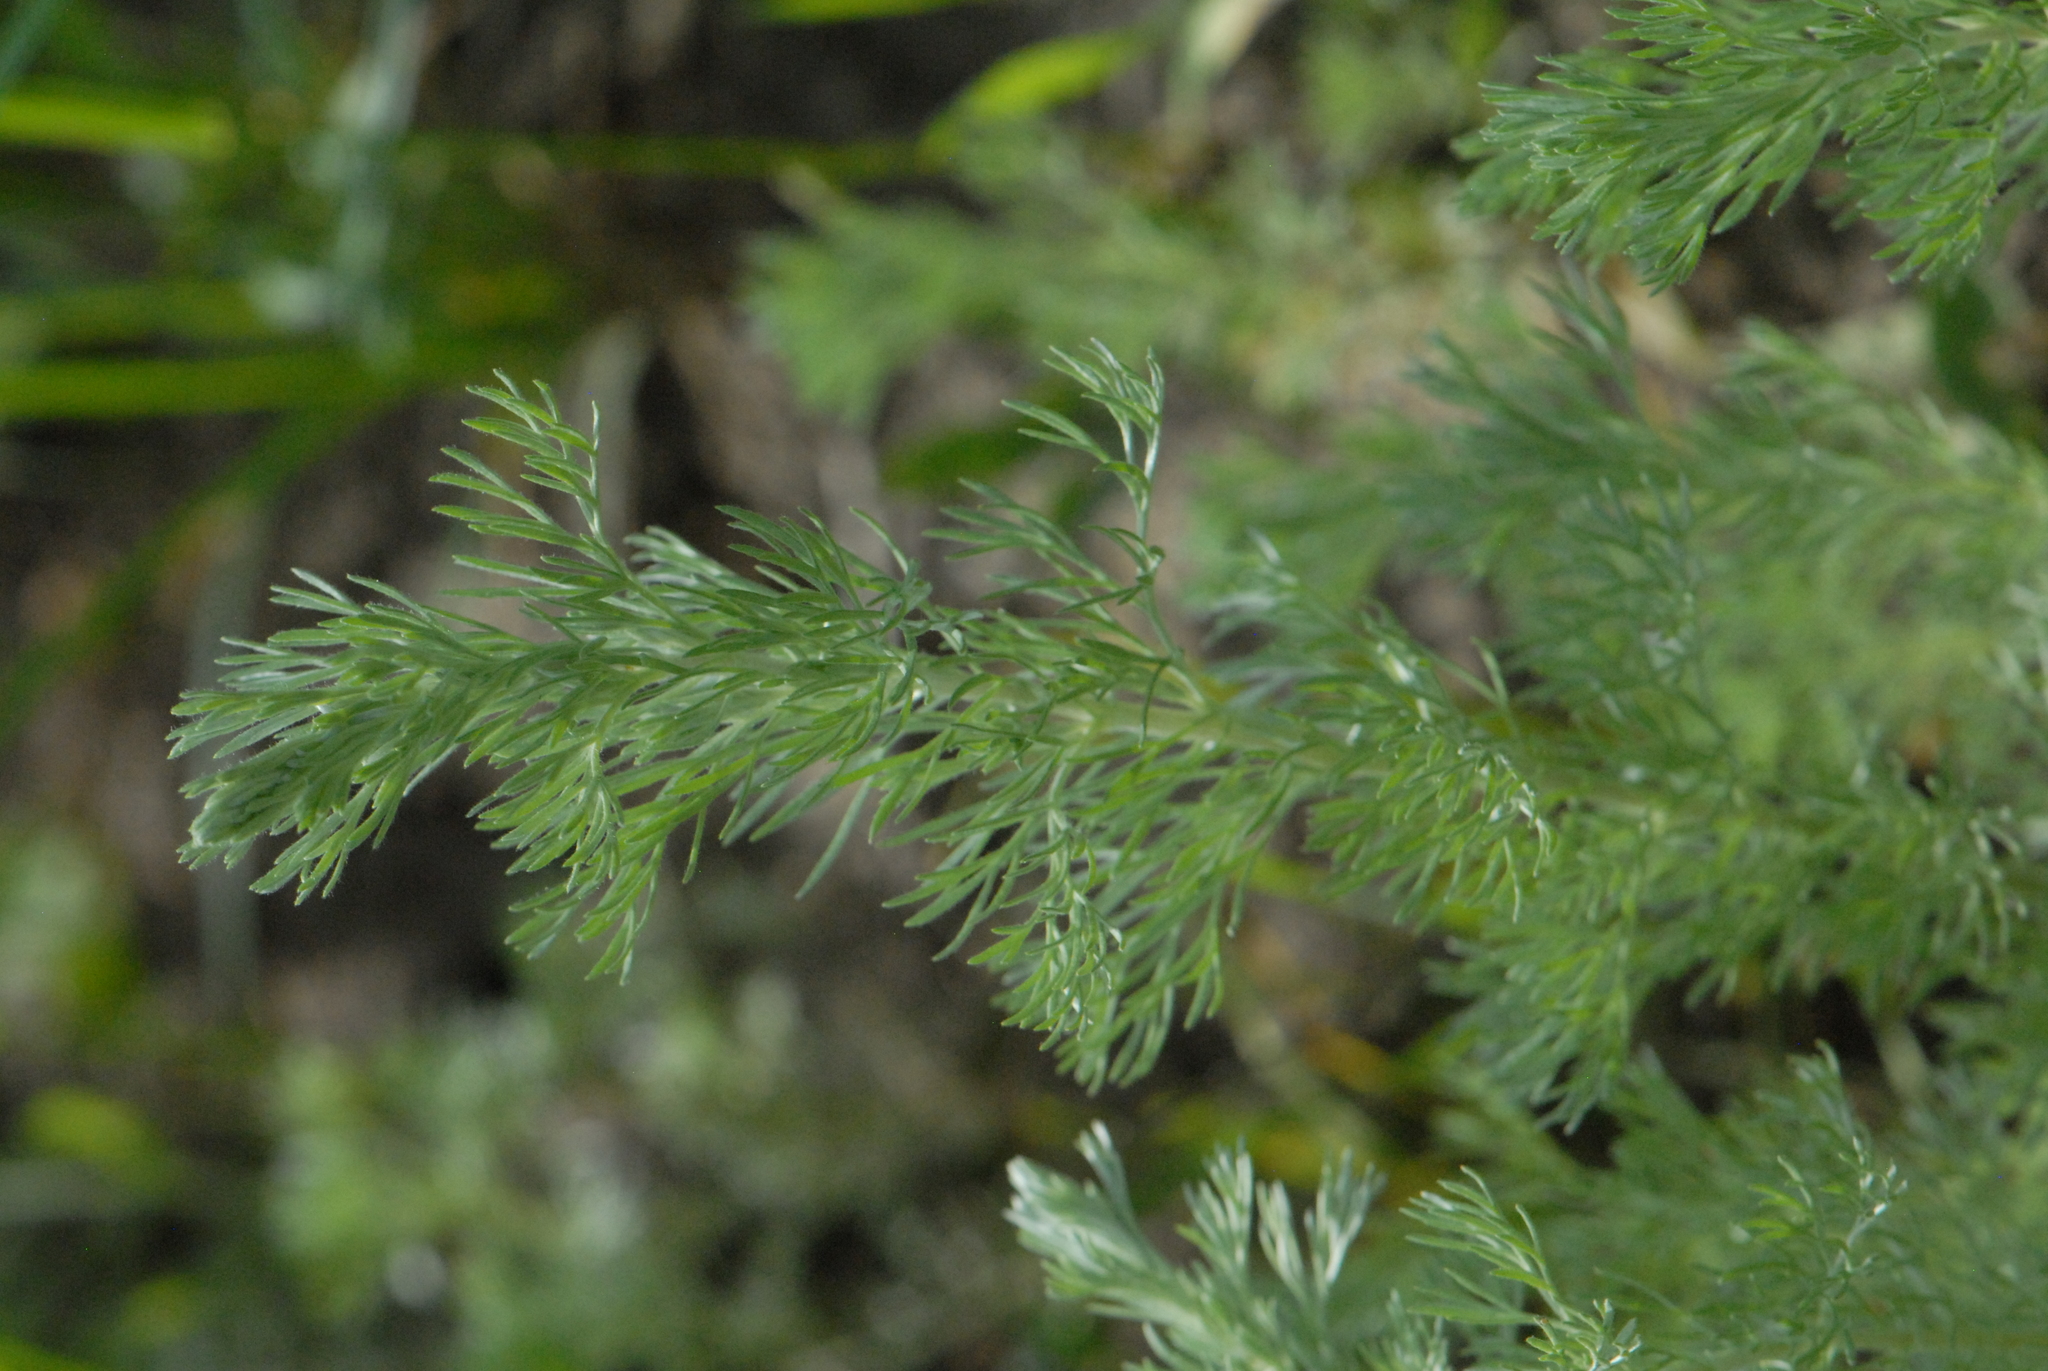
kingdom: Plantae
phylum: Tracheophyta
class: Magnoliopsida
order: Asterales
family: Asteraceae
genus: Artemisia
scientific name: Artemisia austriaca
